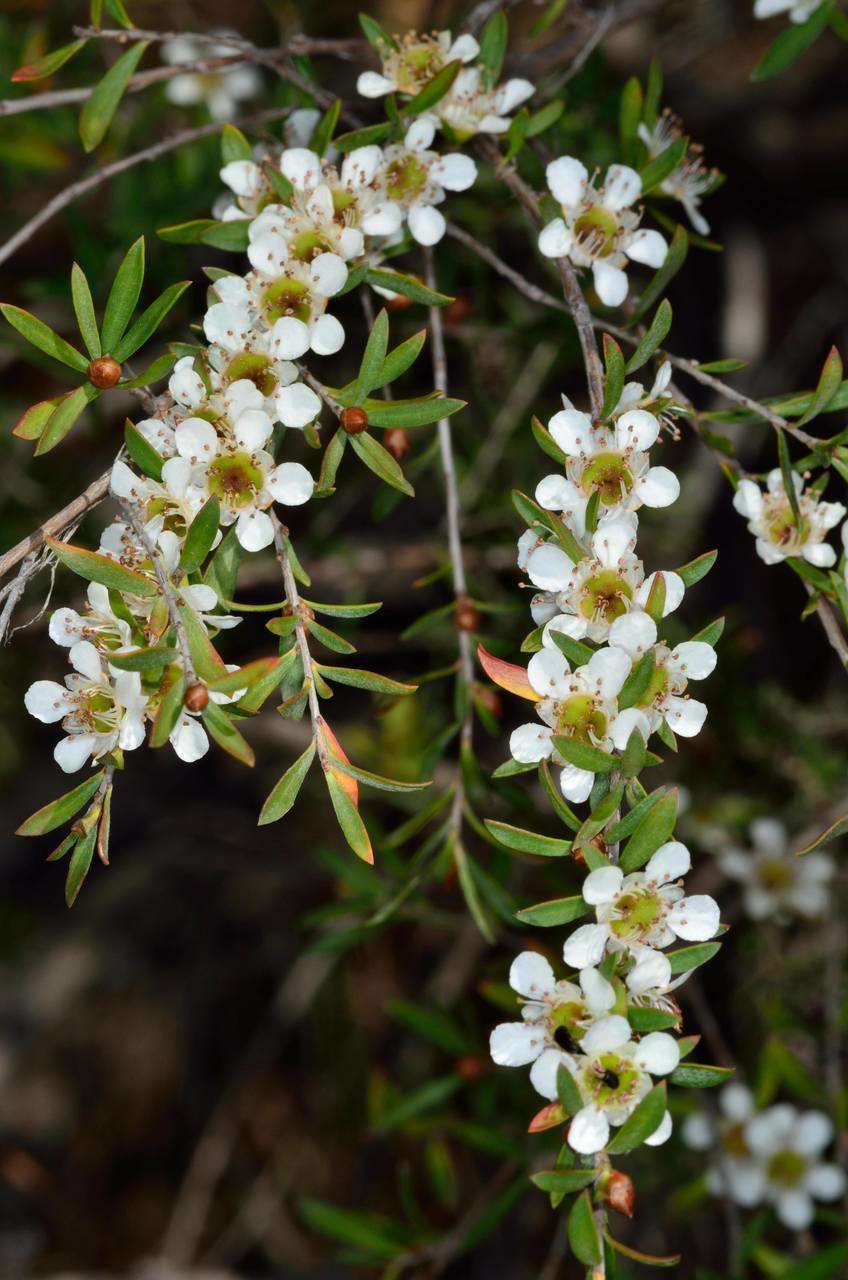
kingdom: Plantae
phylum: Tracheophyta
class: Magnoliopsida
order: Myrtales
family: Myrtaceae
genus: Leptospermum
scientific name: Leptospermum obovatum
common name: River teatree
